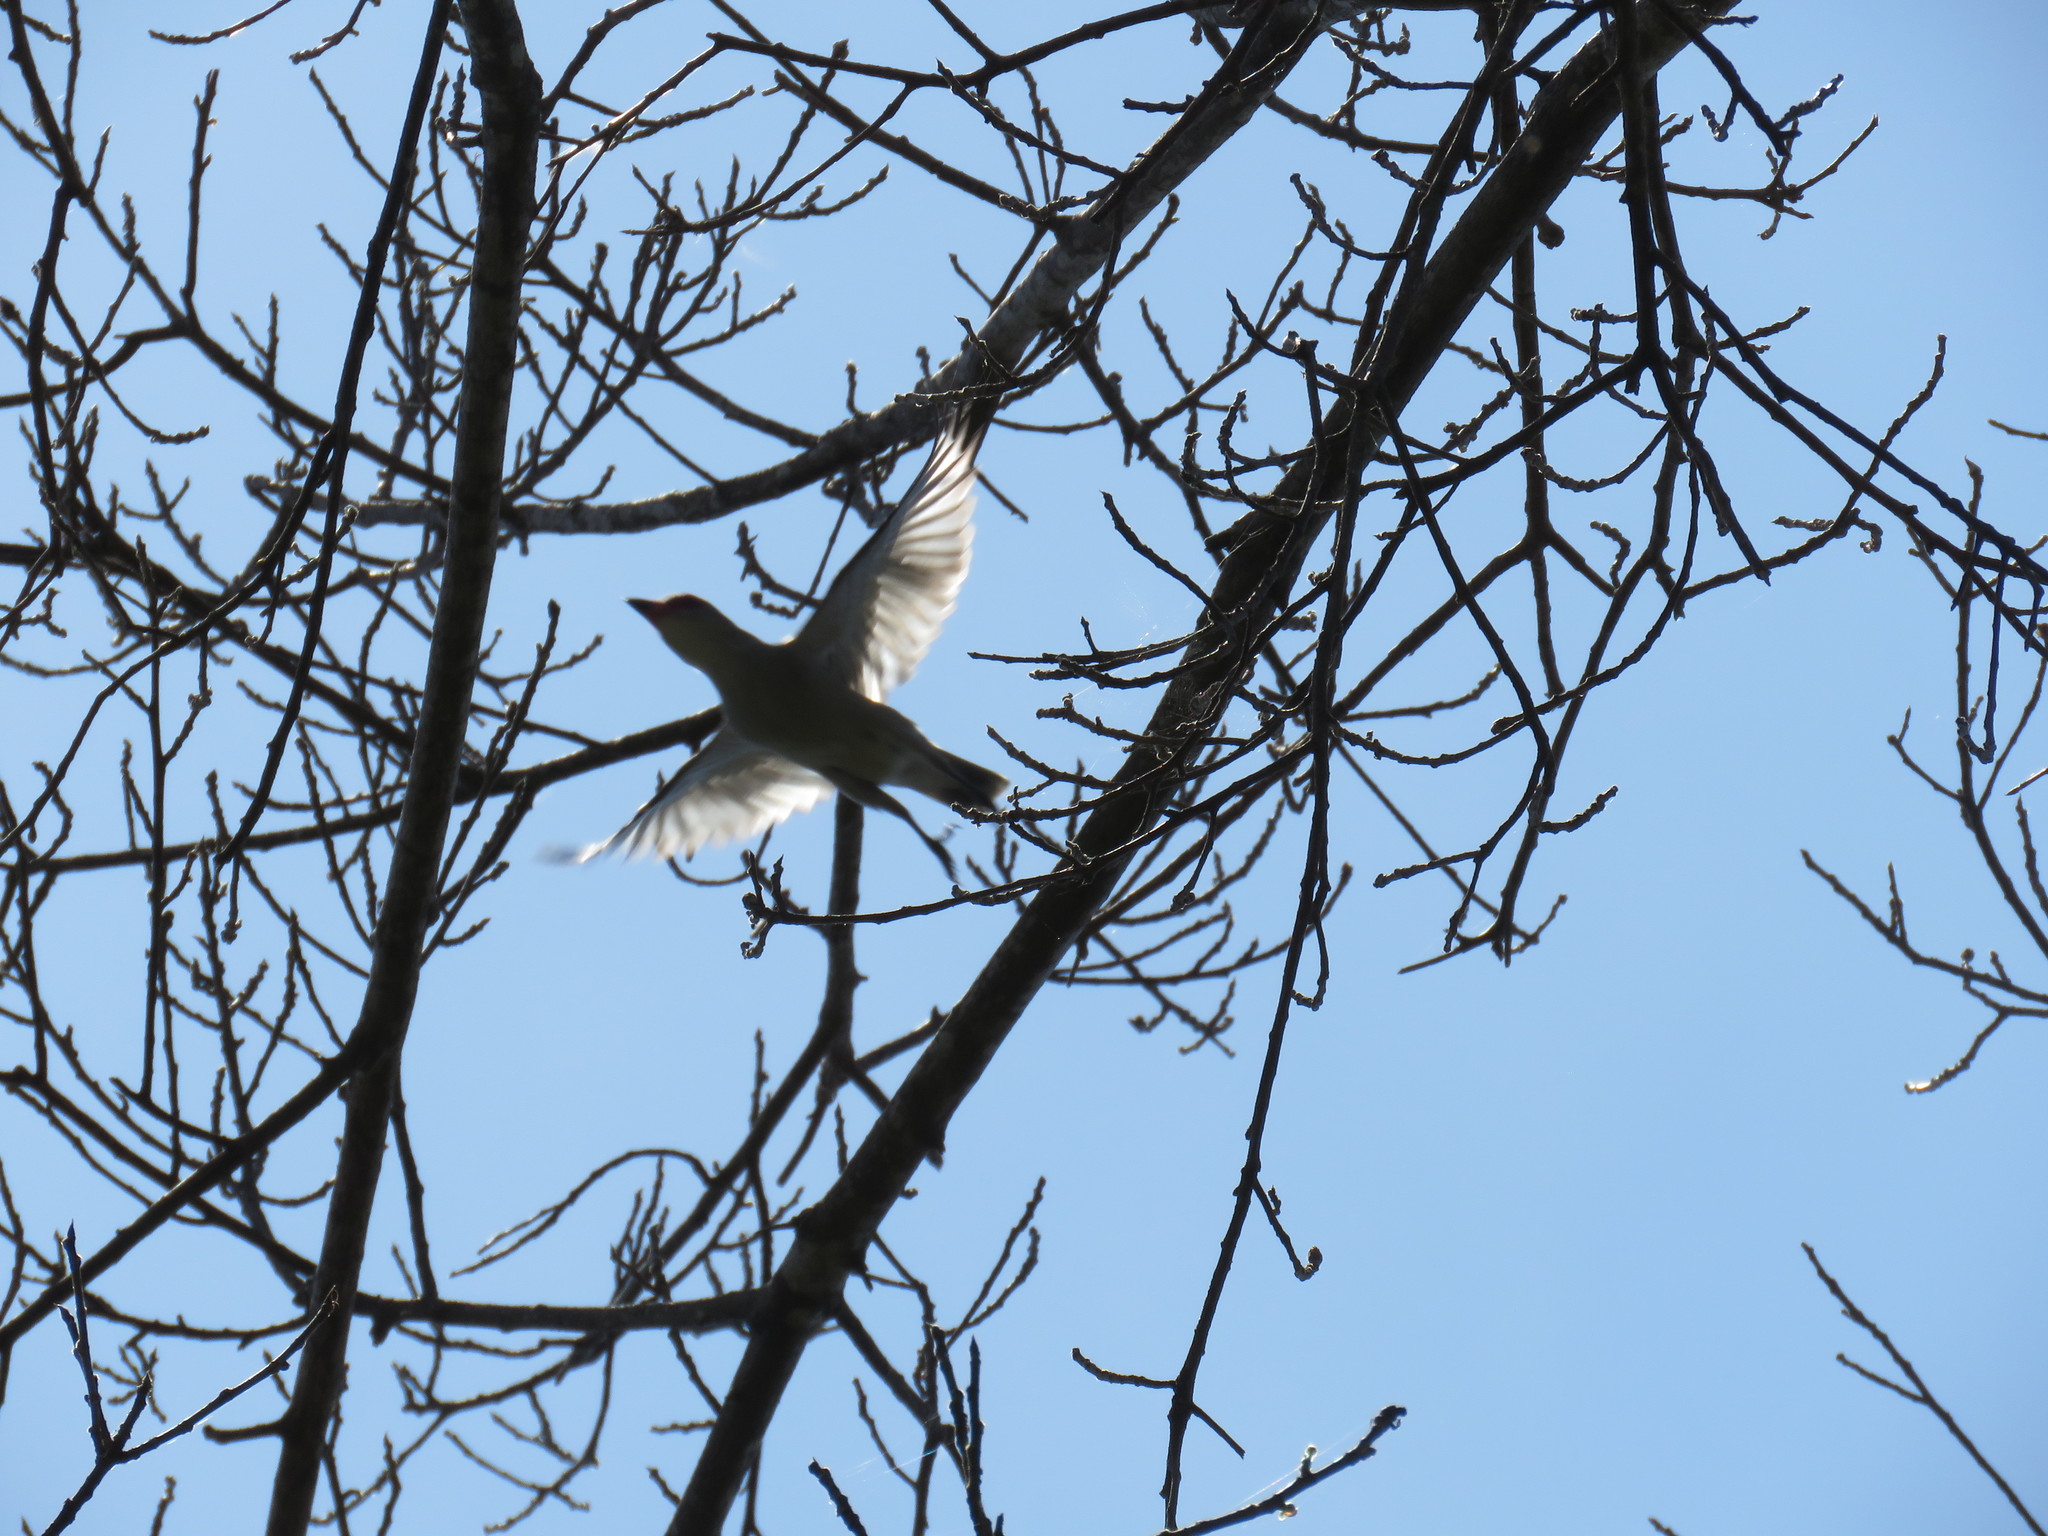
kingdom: Animalia
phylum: Chordata
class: Aves
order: Passeriformes
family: Cotingidae
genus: Tityra
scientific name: Tityra semifasciata
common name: Masked tityra
